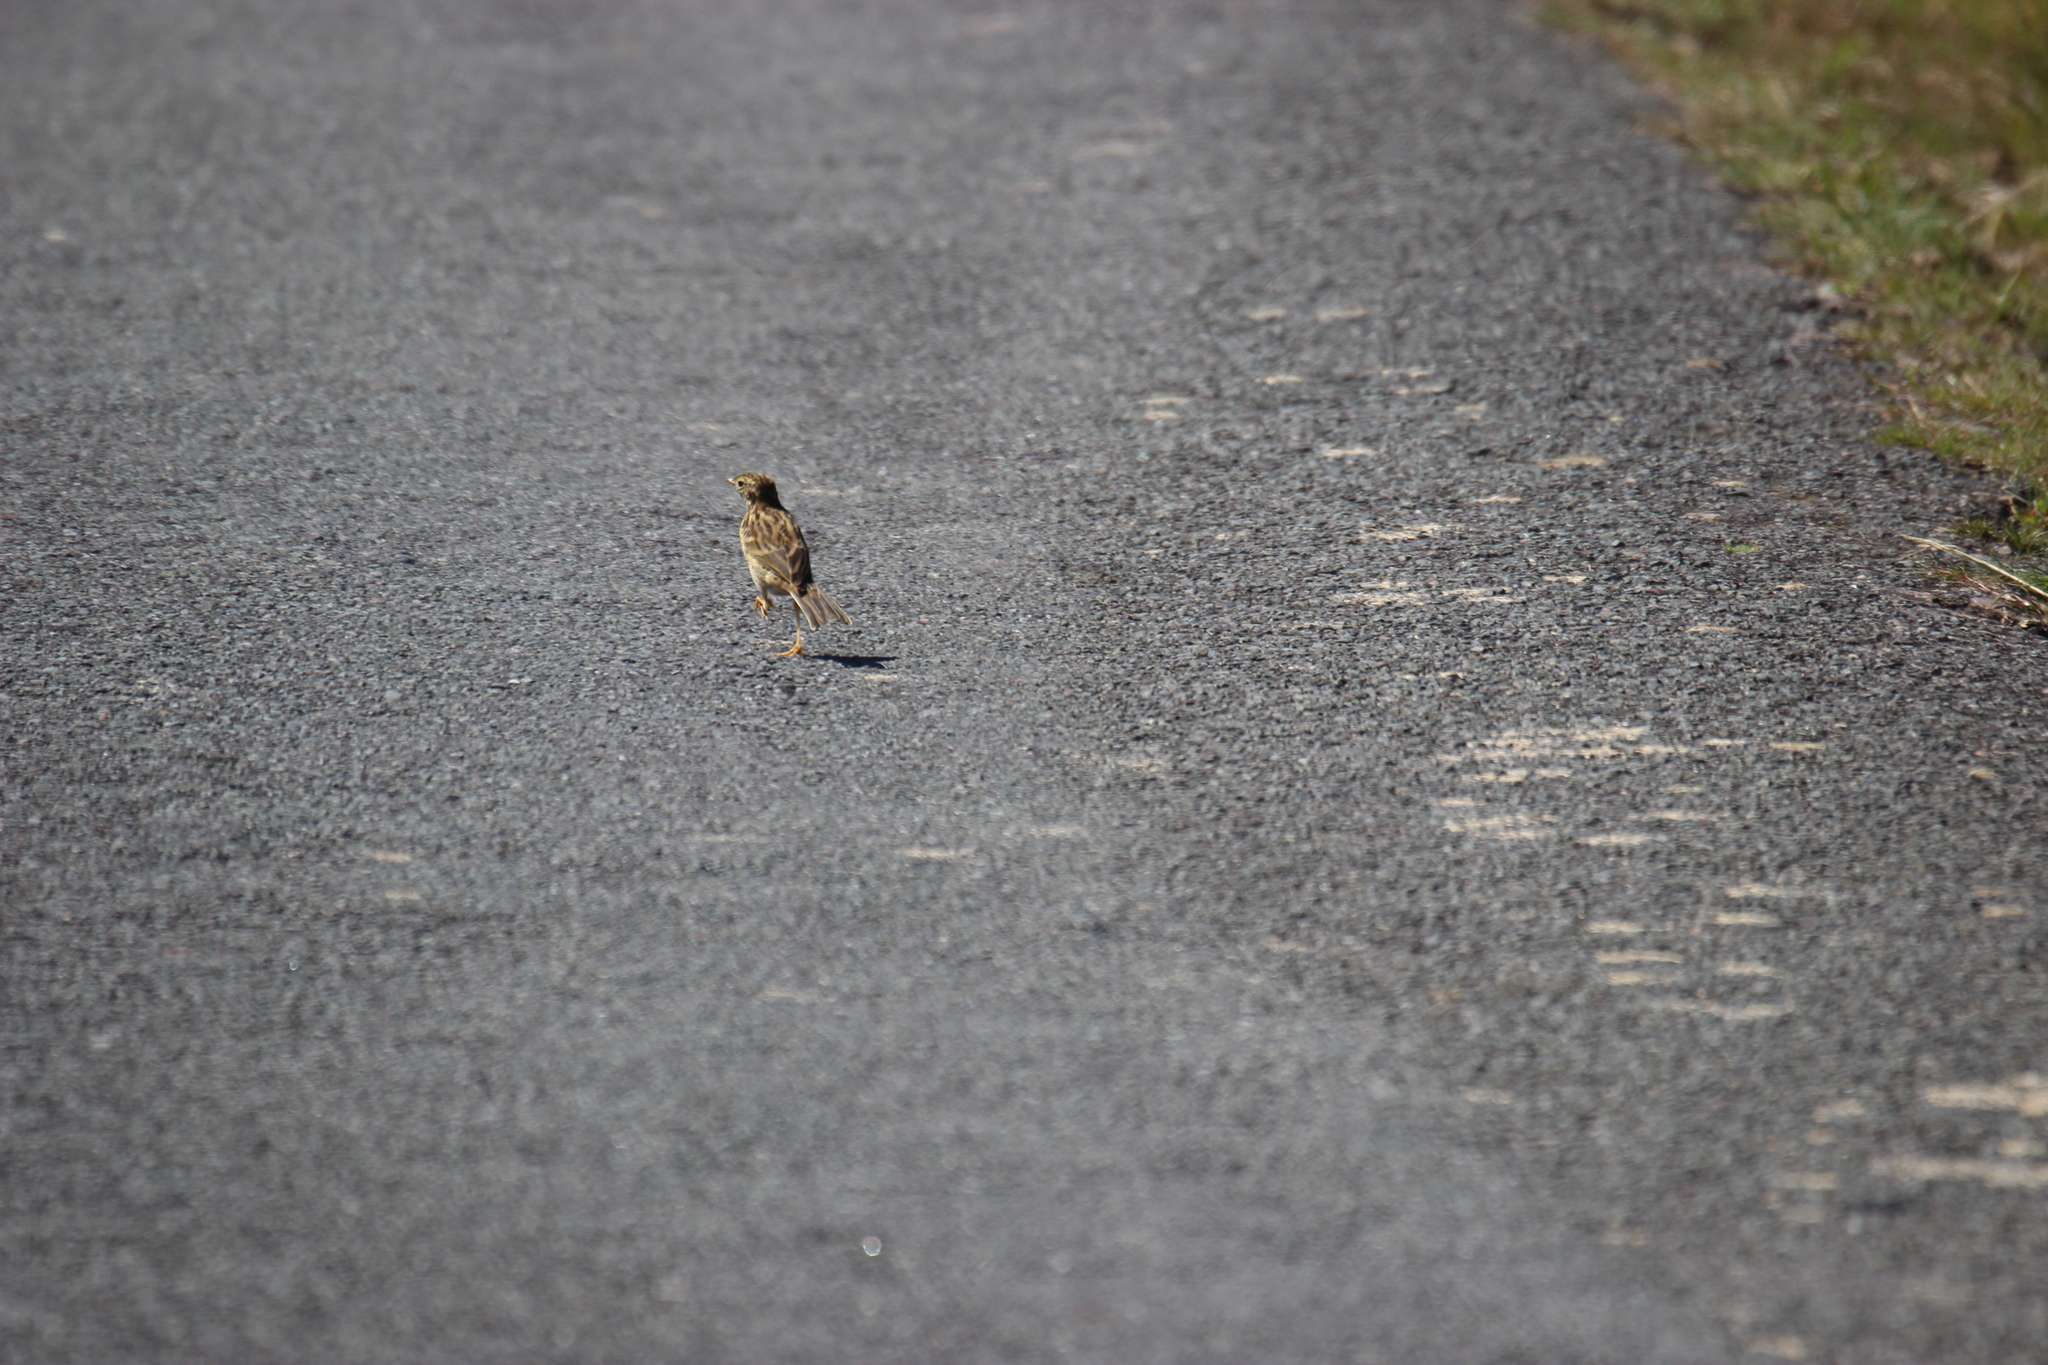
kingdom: Animalia
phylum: Chordata
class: Aves
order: Passeriformes
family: Motacillidae
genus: Anthus
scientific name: Anthus pratensis
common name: Meadow pipit
